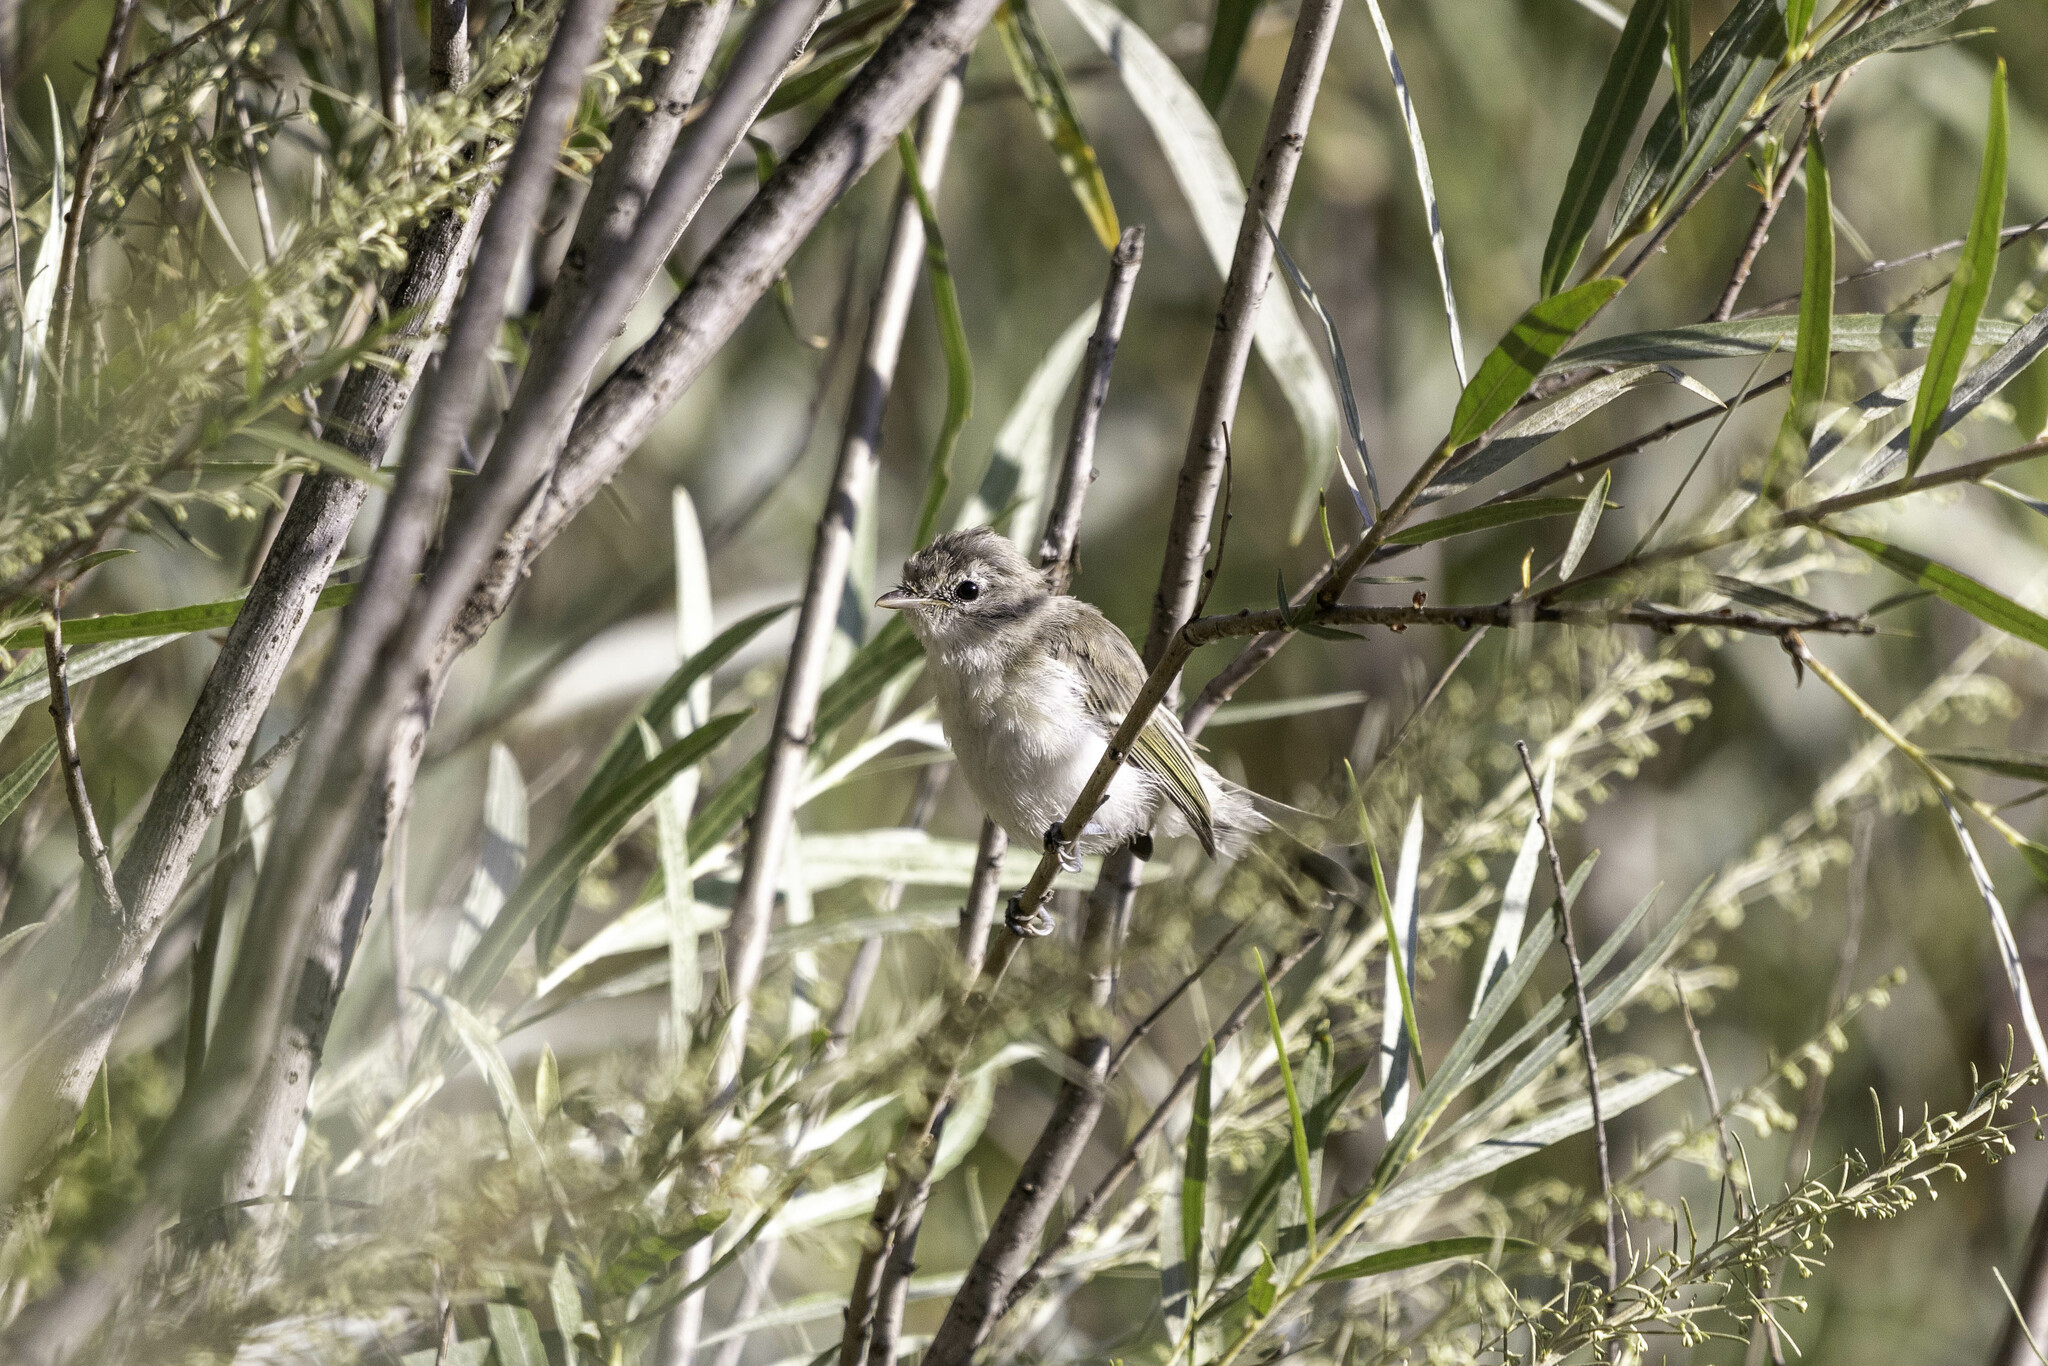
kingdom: Animalia
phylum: Chordata
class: Aves
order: Passeriformes
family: Vireonidae
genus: Vireo
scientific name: Vireo bellii
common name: Bell's vireo
